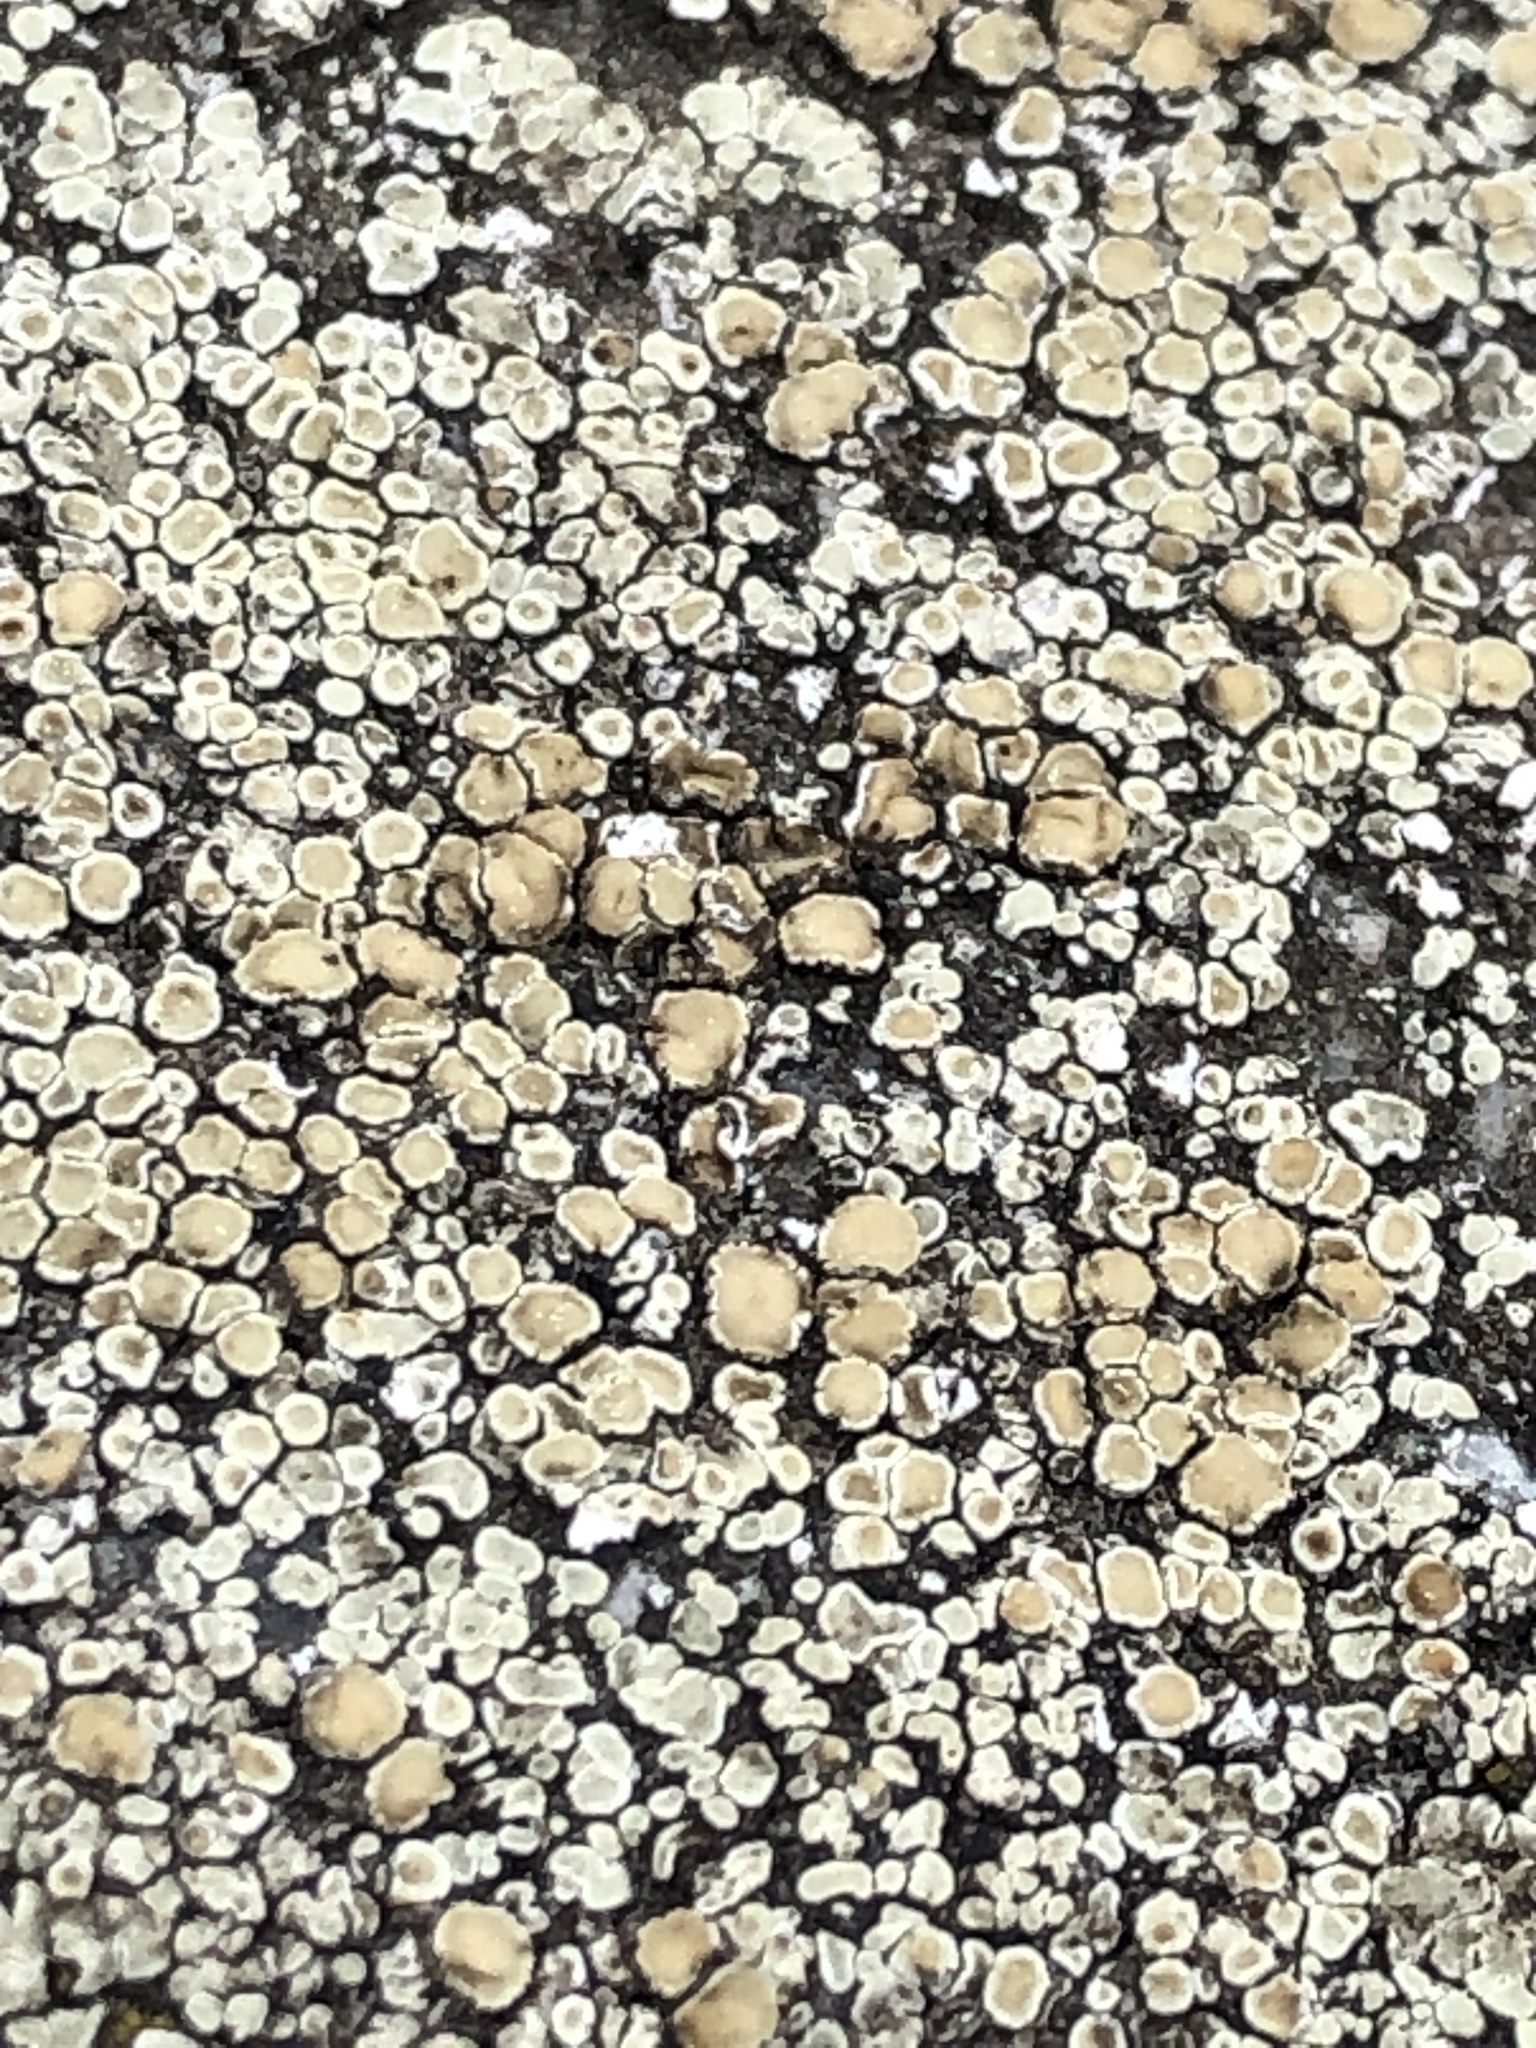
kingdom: Fungi
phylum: Ascomycota
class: Lecanoromycetes
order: Lecanorales
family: Lecanoraceae
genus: Protoparmeliopsis
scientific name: Protoparmeliopsis muralis
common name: Stonewall rim lichen
